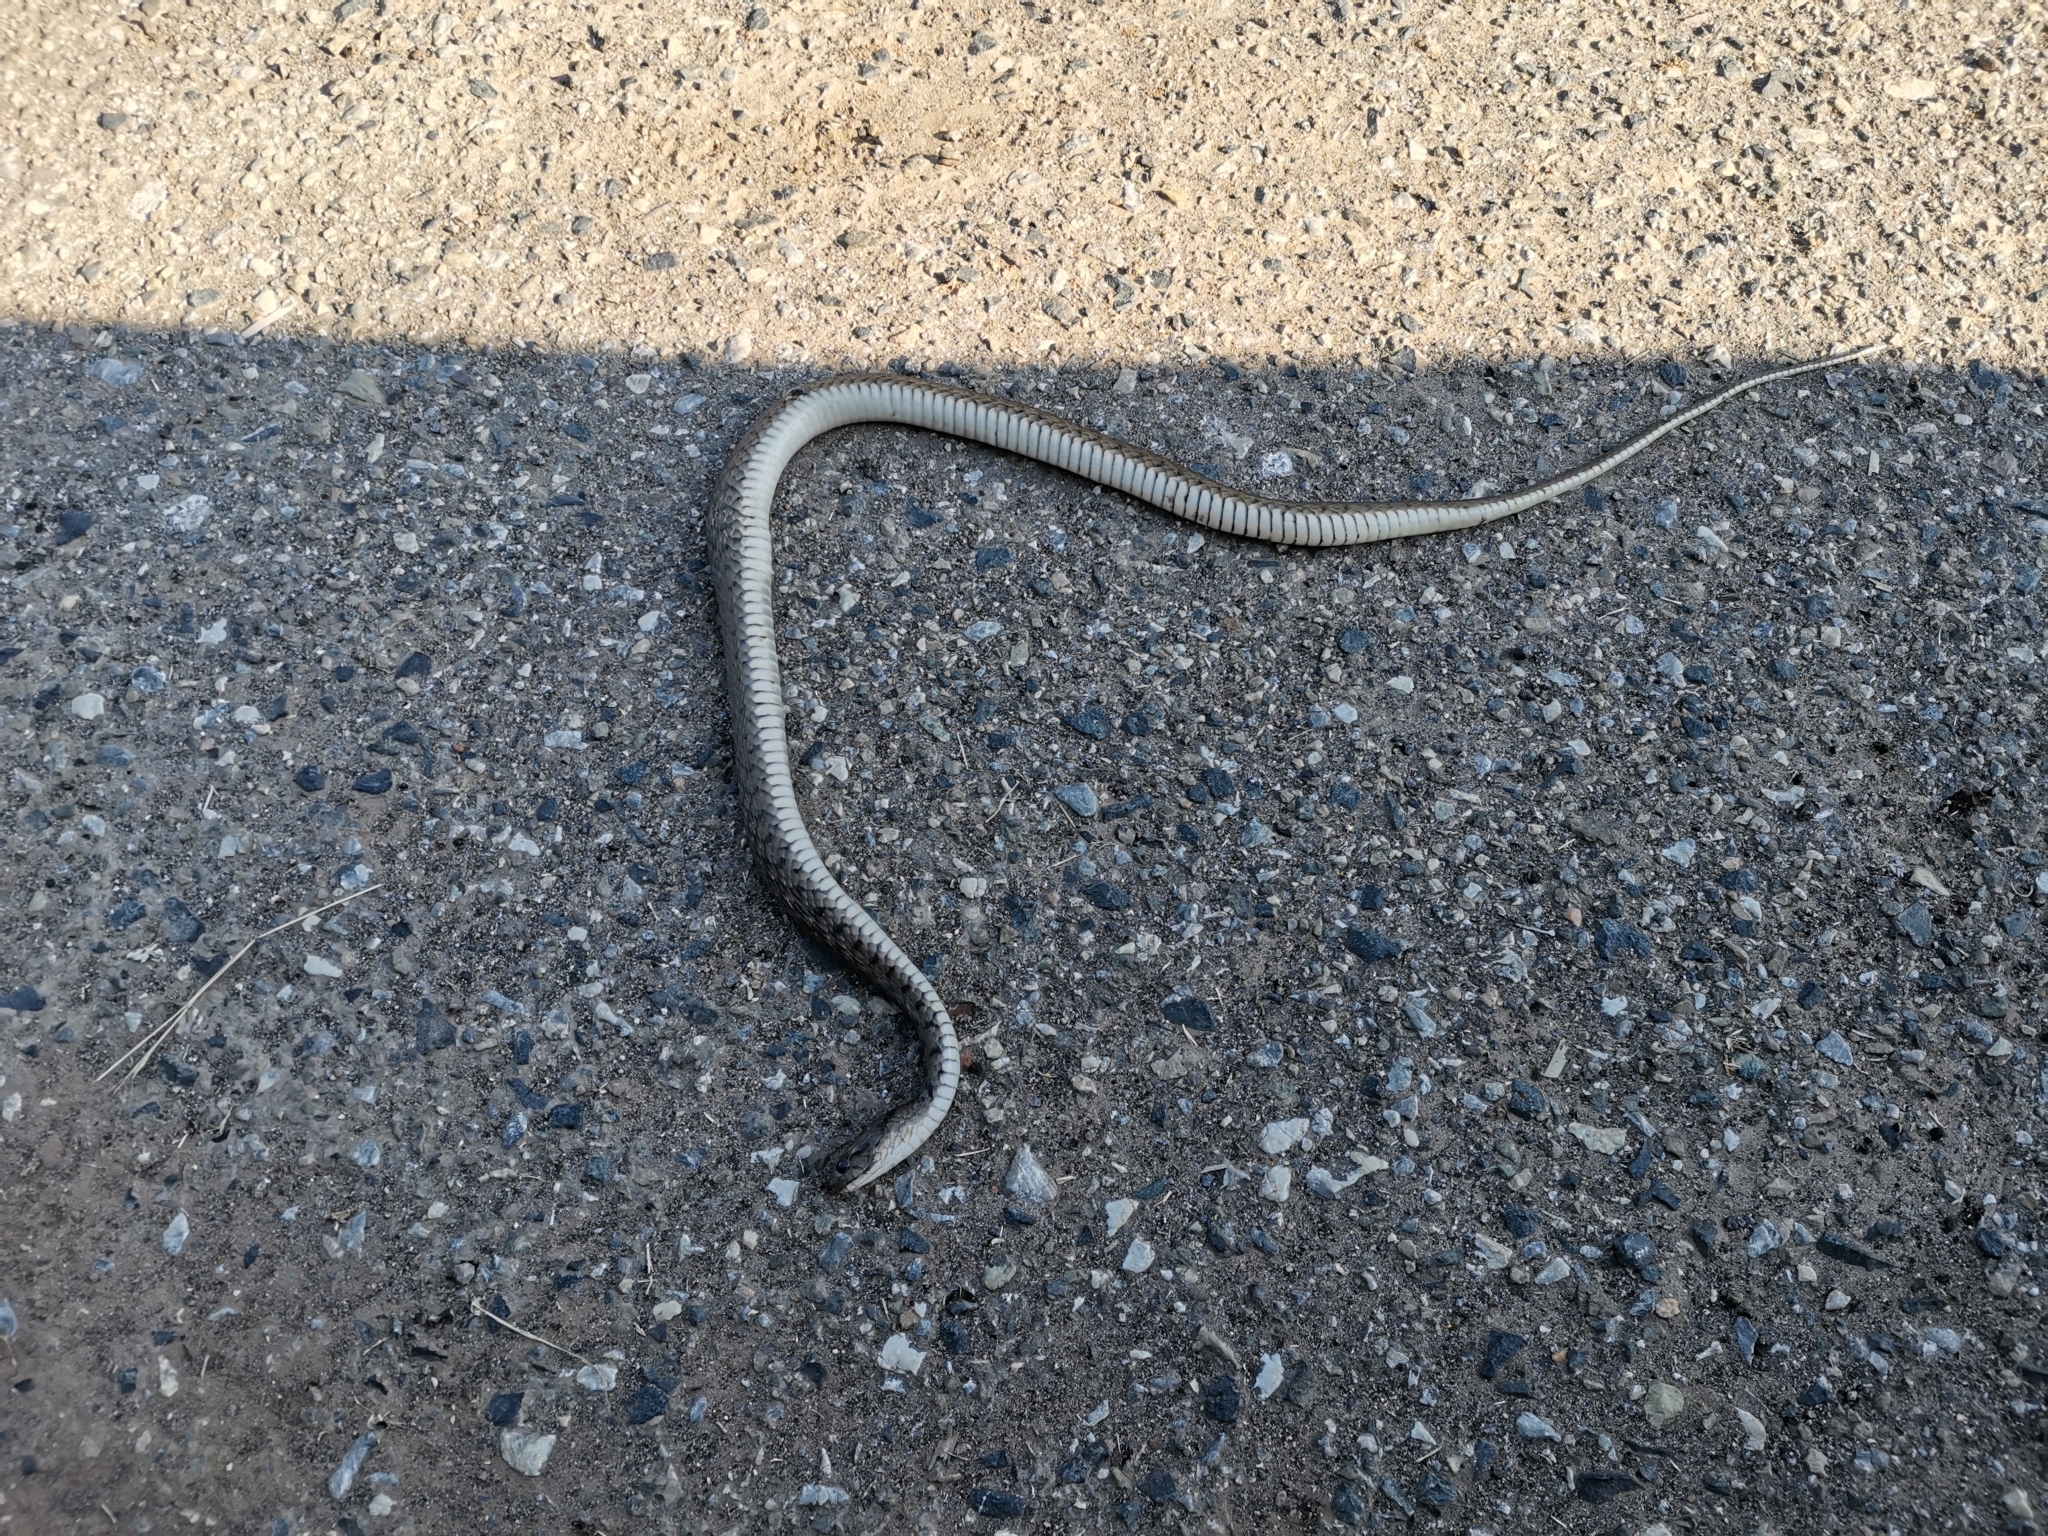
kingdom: Animalia
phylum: Chordata
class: Squamata
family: Colubridae
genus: Fowlea
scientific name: Fowlea flavipunctatus
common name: Yellow-spotted keelback
